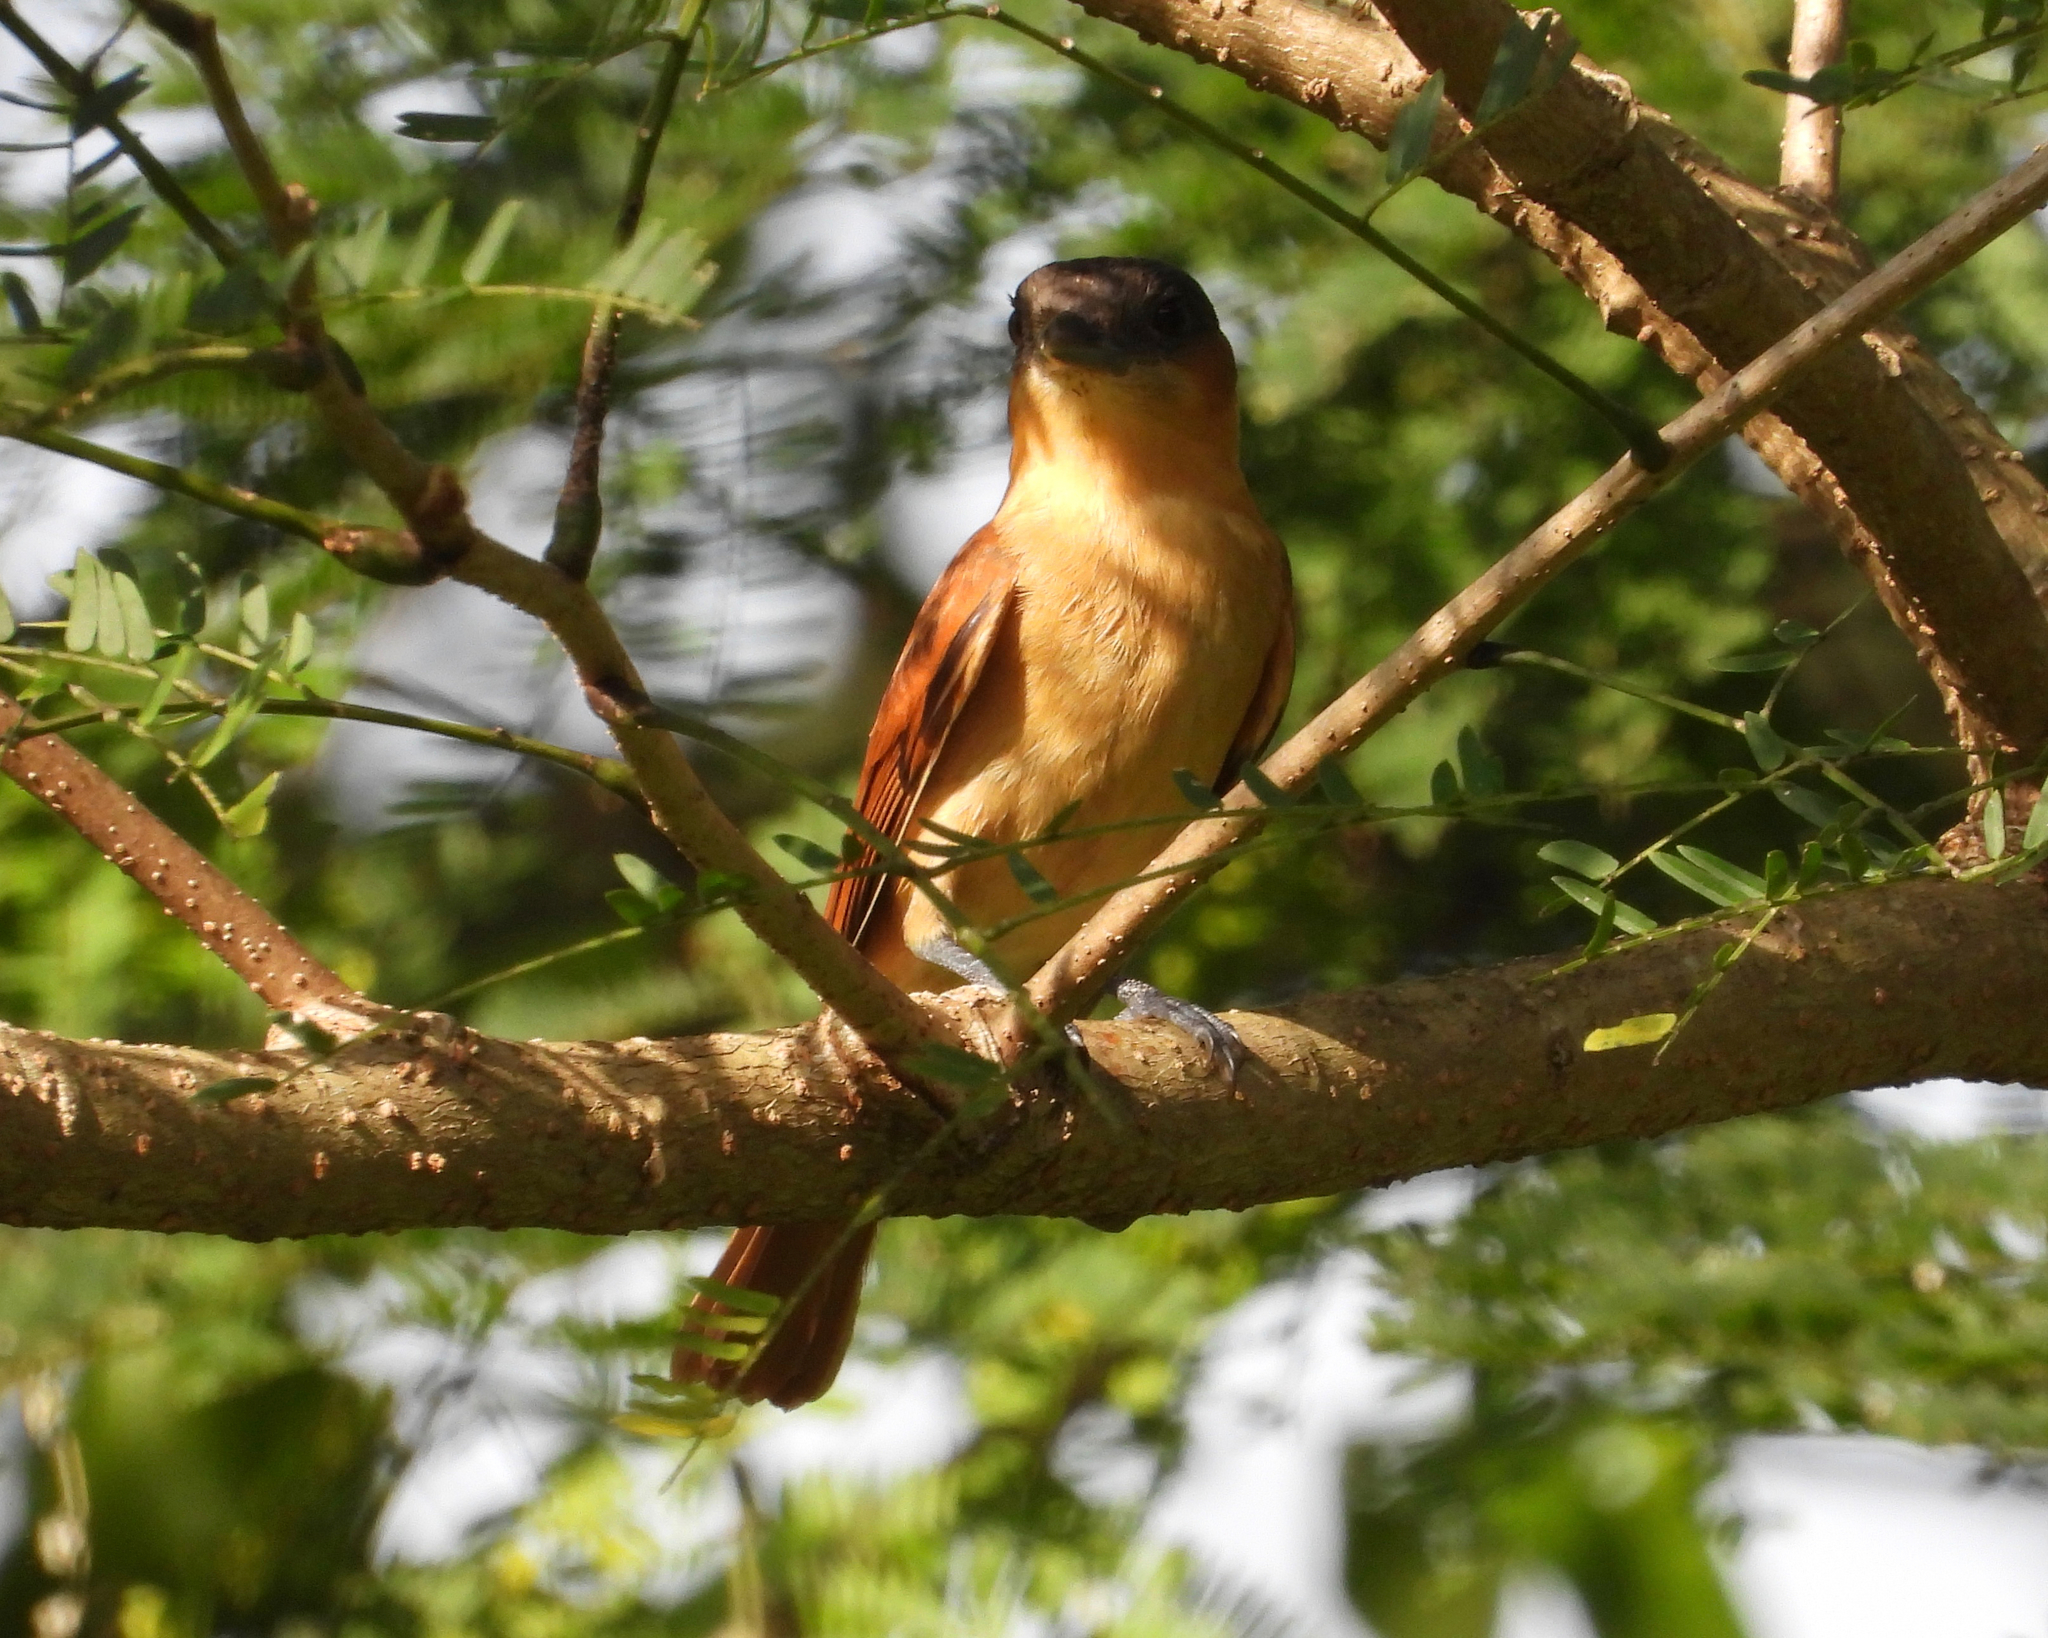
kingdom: Animalia
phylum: Chordata
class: Aves
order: Passeriformes
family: Cotingidae
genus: Pachyramphus
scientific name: Pachyramphus aglaiae
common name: Rose-throated becard
